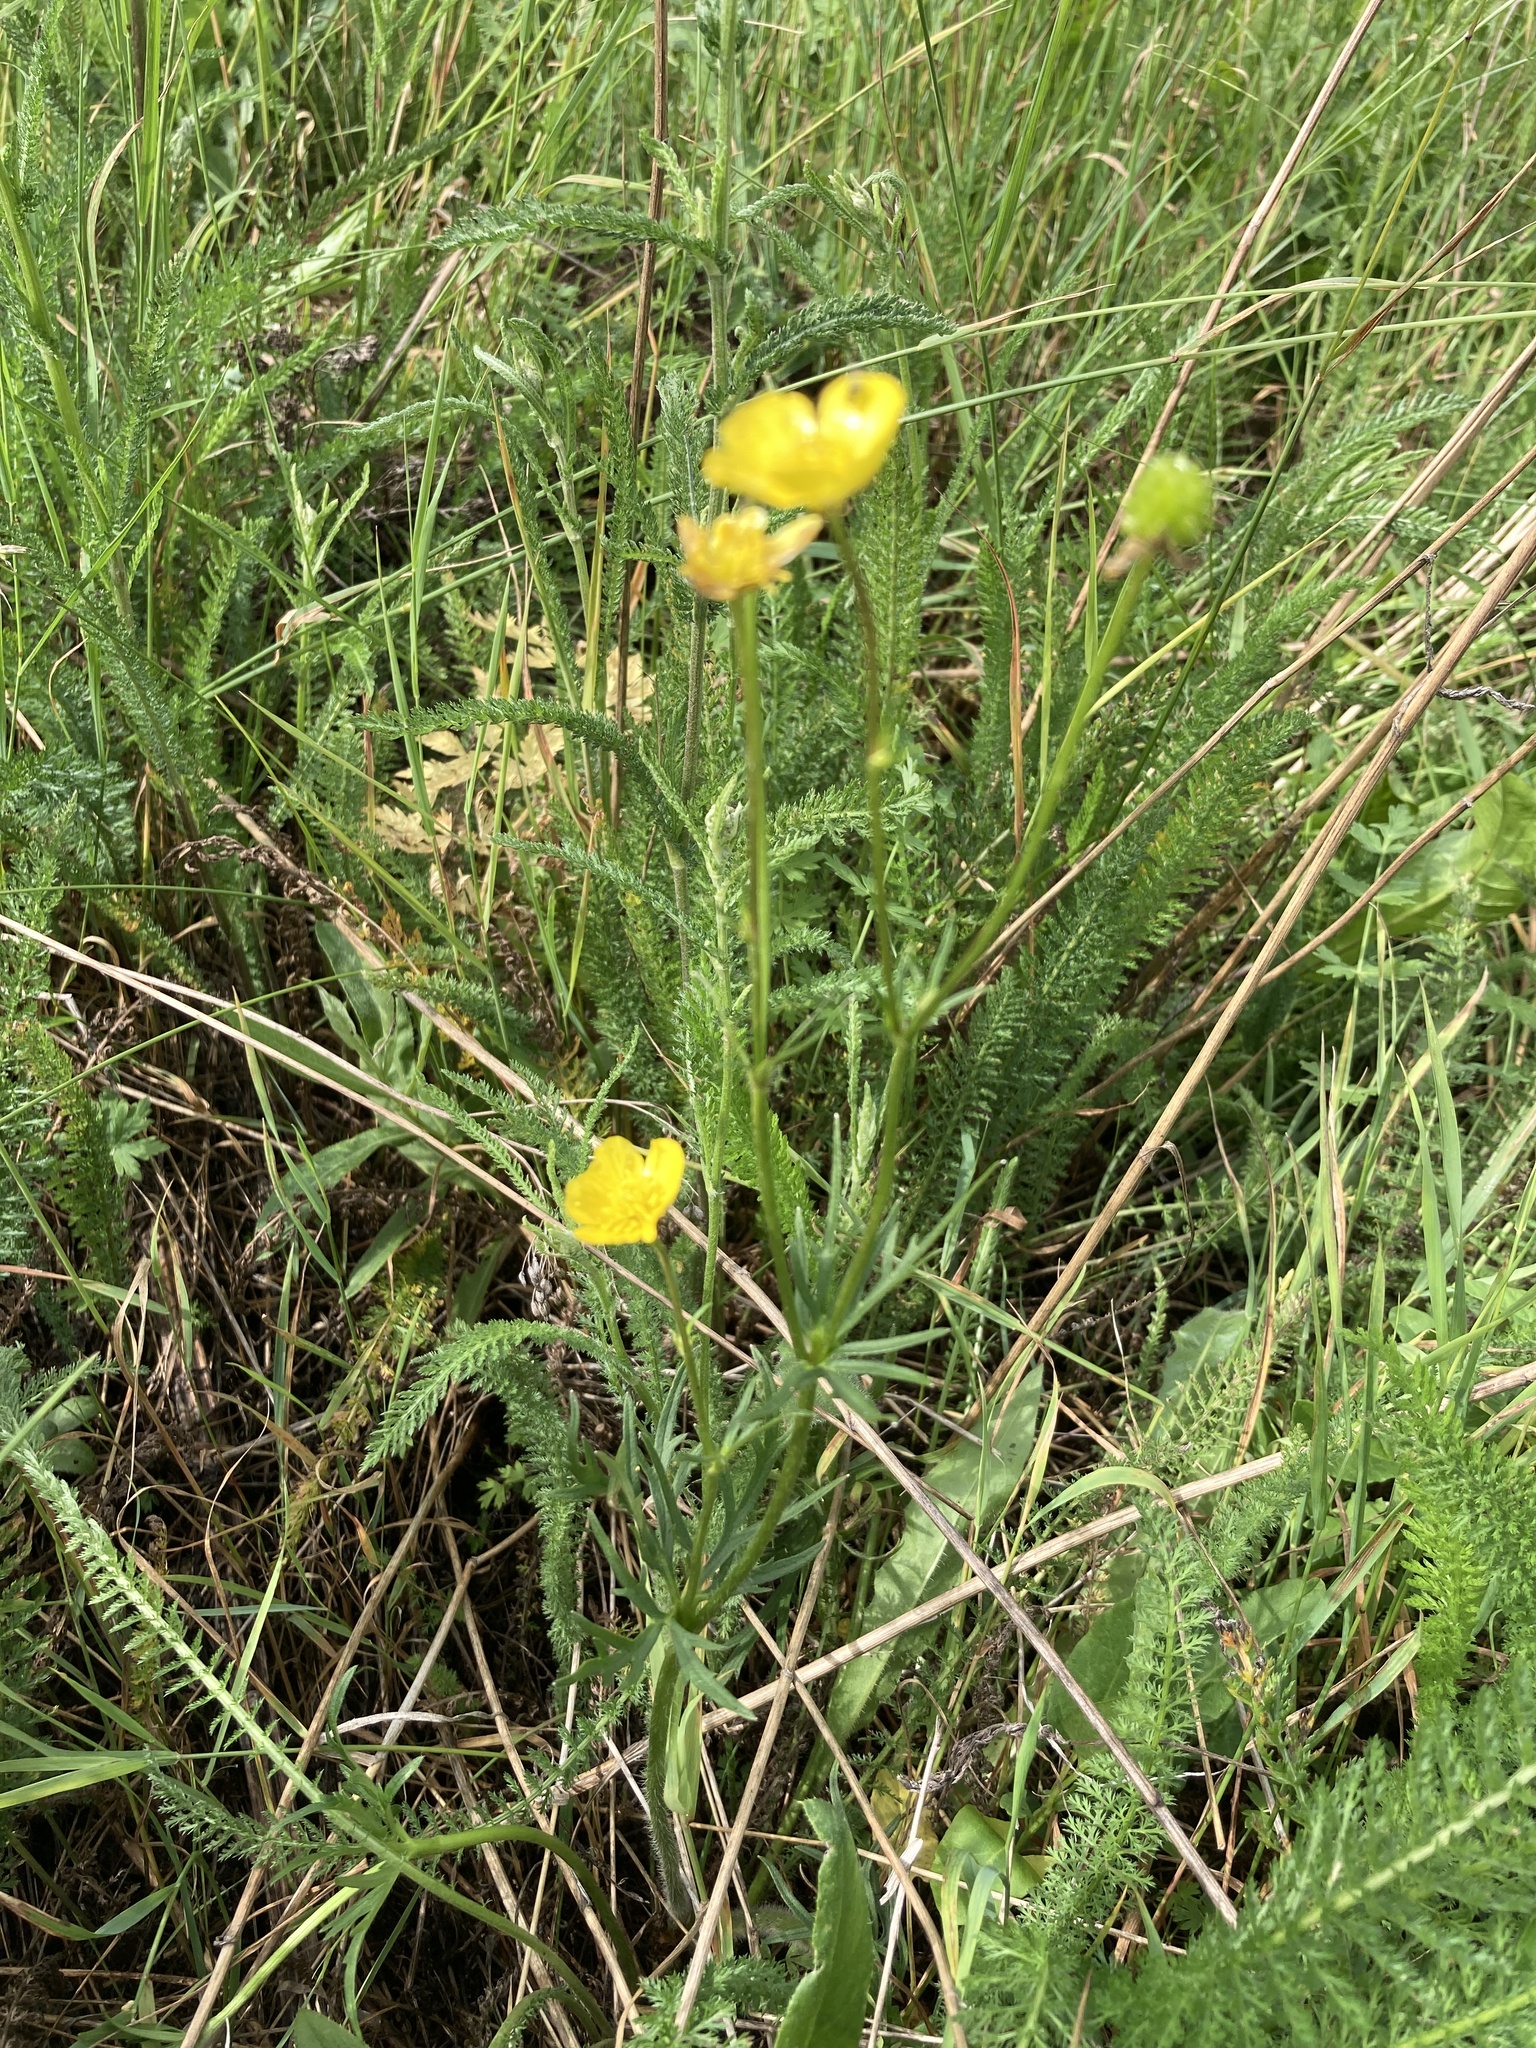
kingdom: Plantae
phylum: Tracheophyta
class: Magnoliopsida
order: Ranunculales
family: Ranunculaceae
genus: Ranunculus
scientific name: Ranunculus polyanthemos
